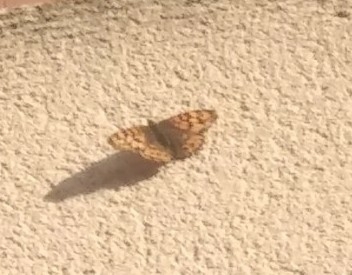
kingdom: Animalia
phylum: Arthropoda
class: Insecta
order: Lepidoptera
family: Nymphalidae
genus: Pararge
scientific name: Pararge aegeria
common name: Speckled wood
